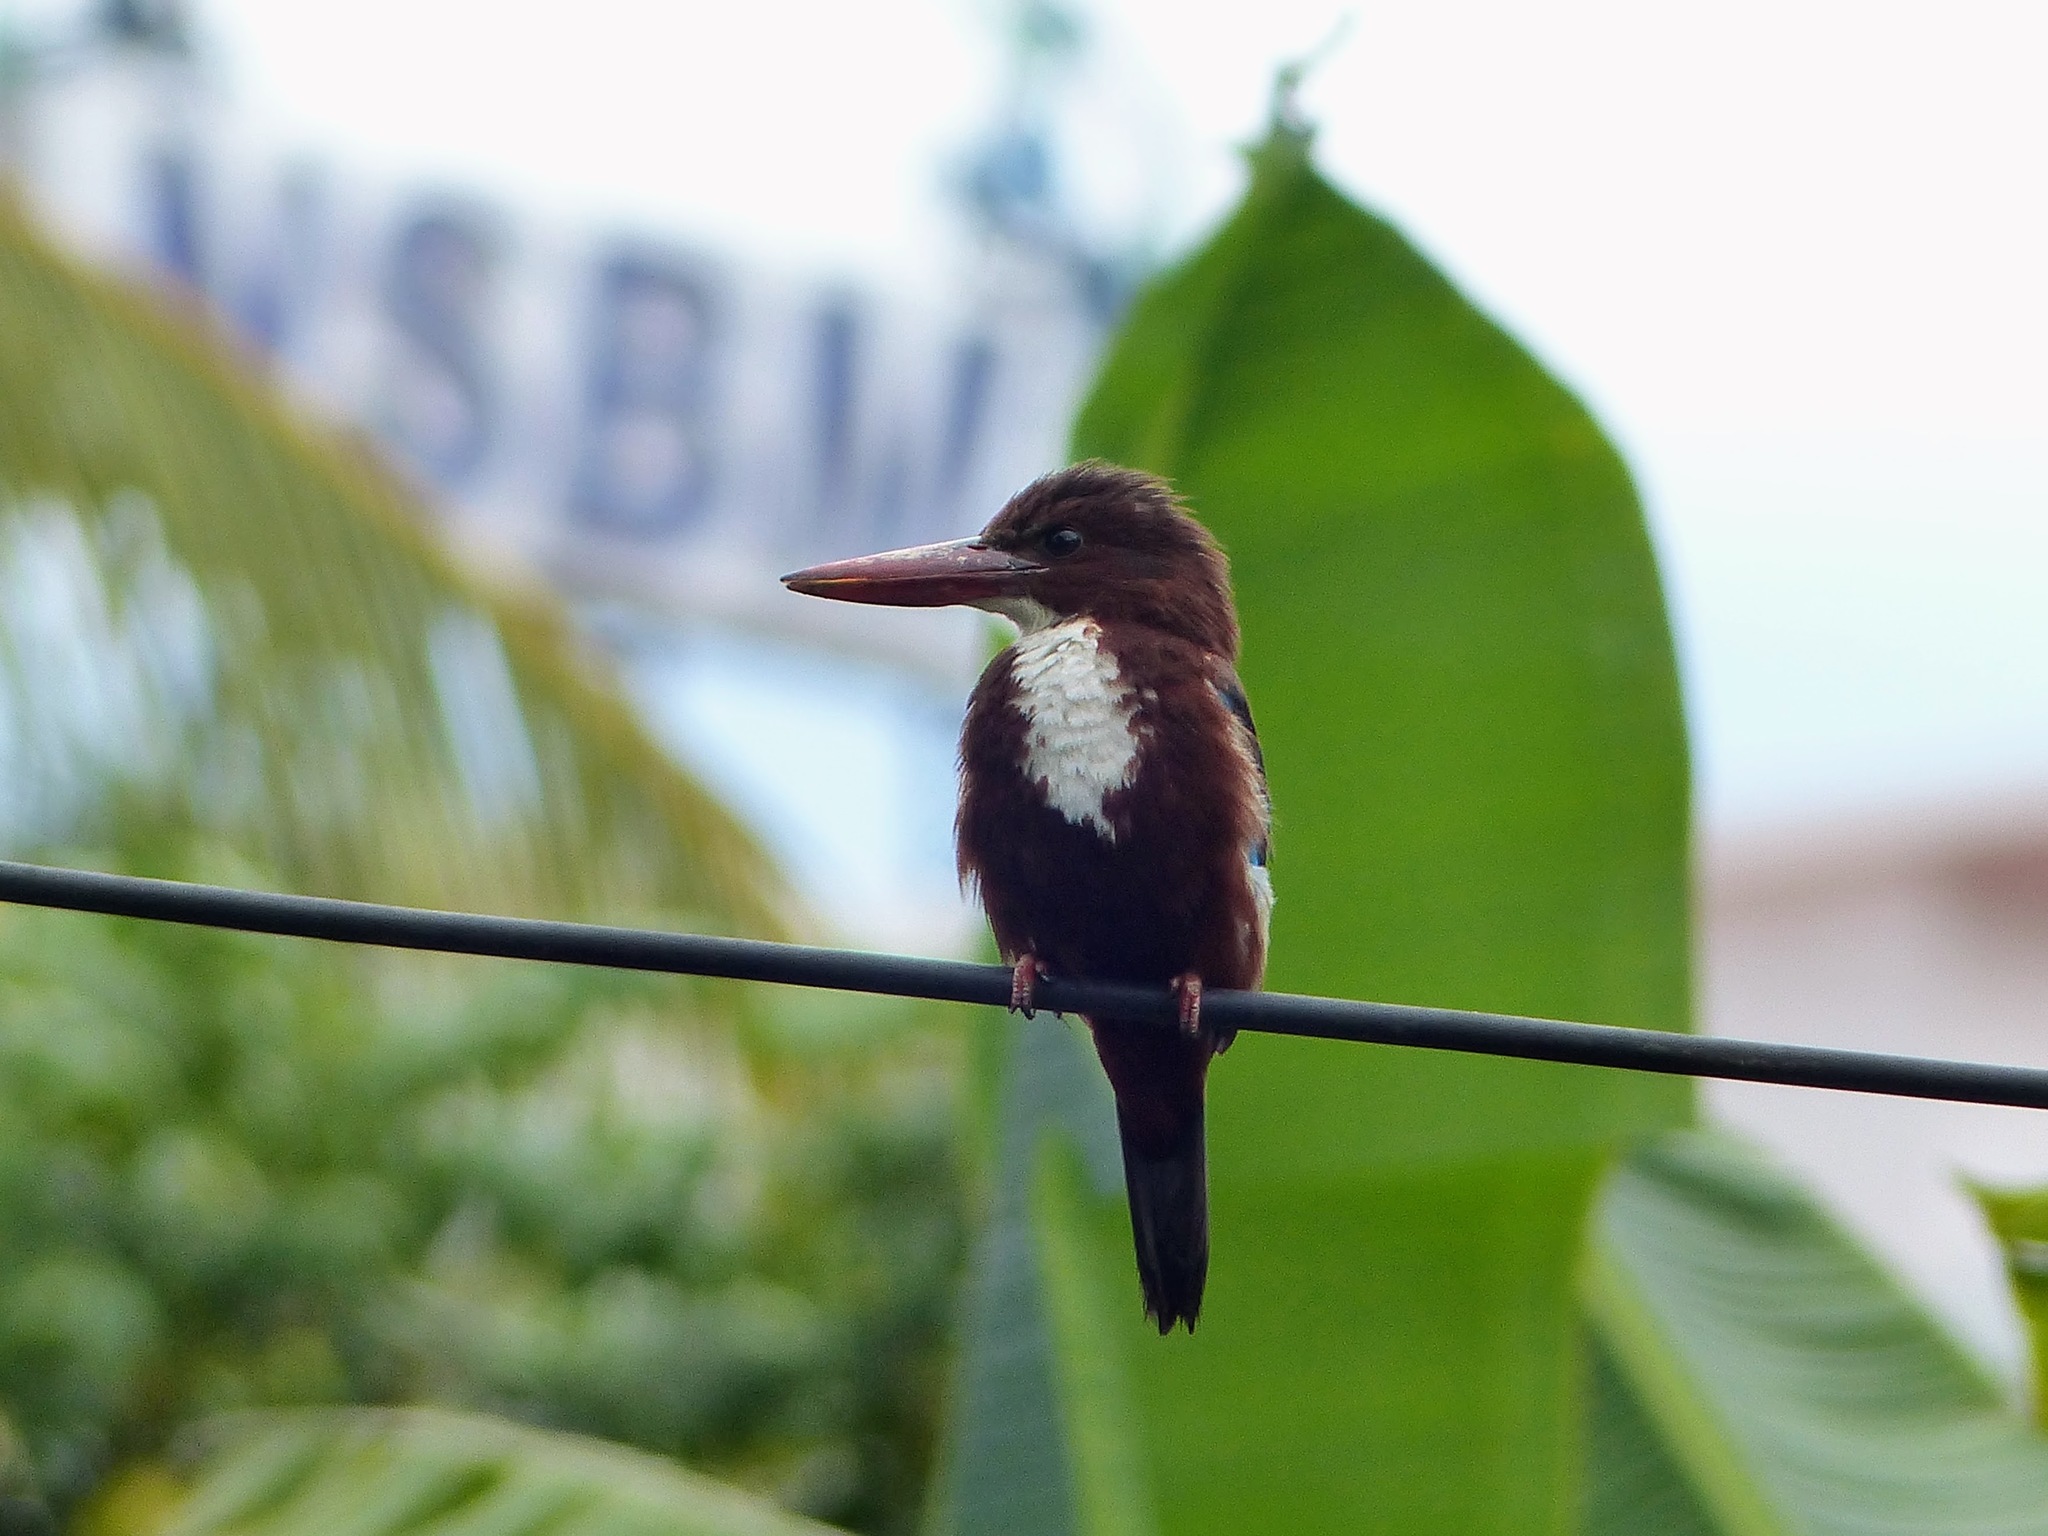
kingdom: Animalia
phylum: Chordata
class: Aves
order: Coraciiformes
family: Alcedinidae
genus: Halcyon
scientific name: Halcyon smyrnensis
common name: White-throated kingfisher
